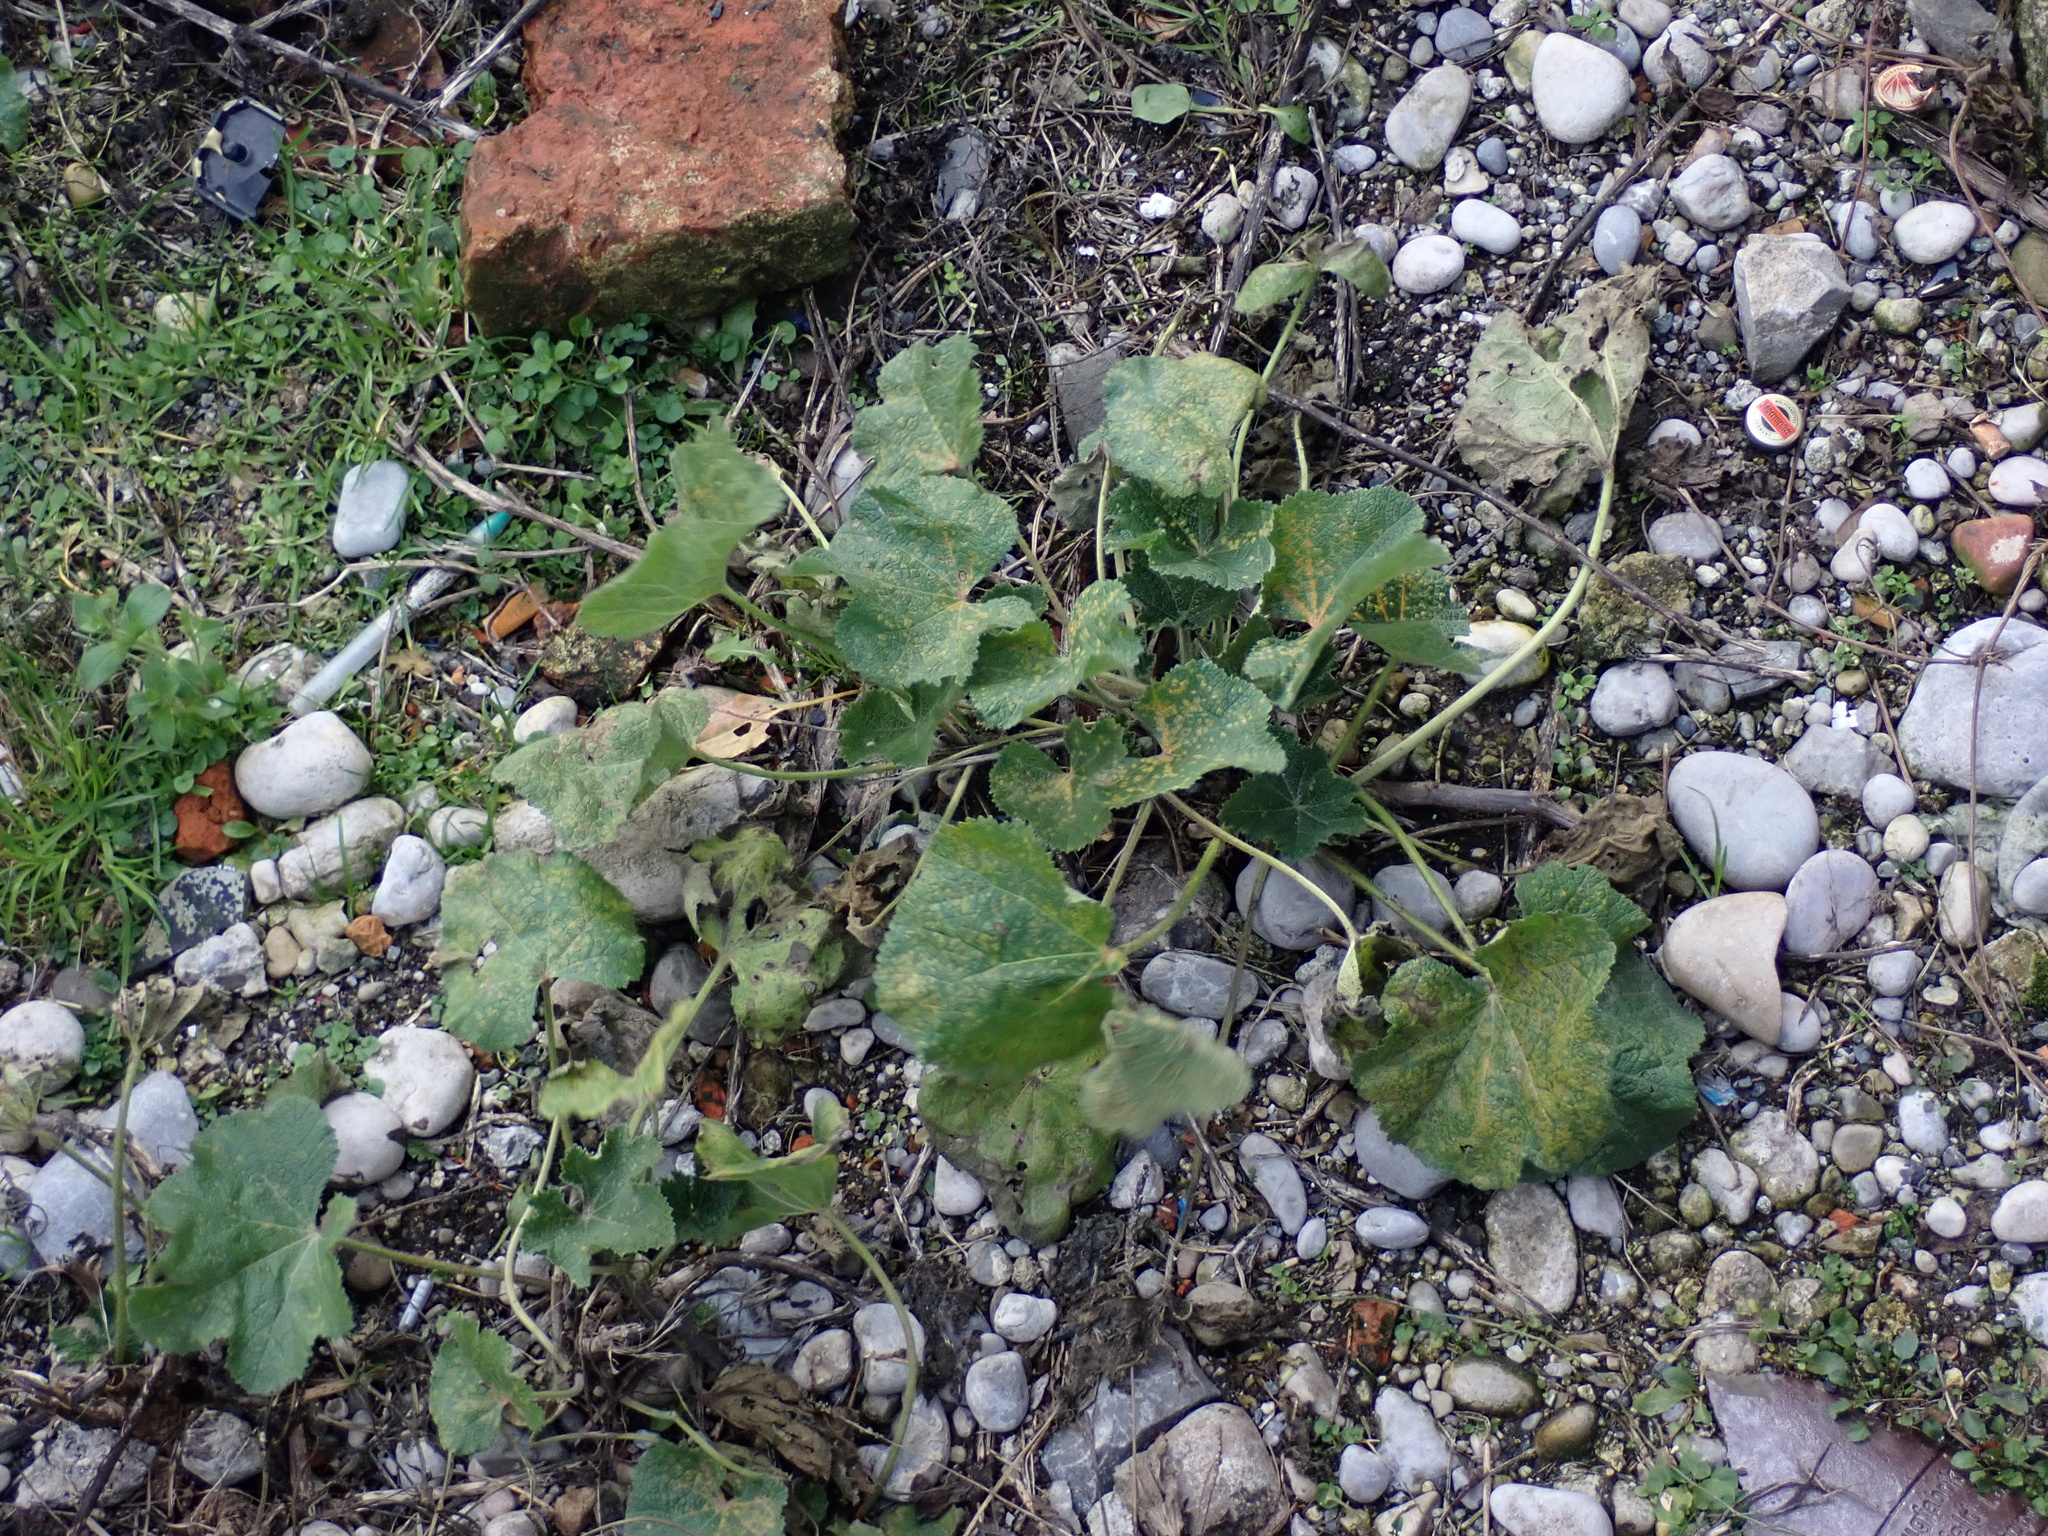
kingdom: Fungi
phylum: Basidiomycota
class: Pucciniomycetes
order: Pucciniales
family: Pucciniaceae
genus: Puccinia
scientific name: Puccinia malvacearum
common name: Hollyhock rust
